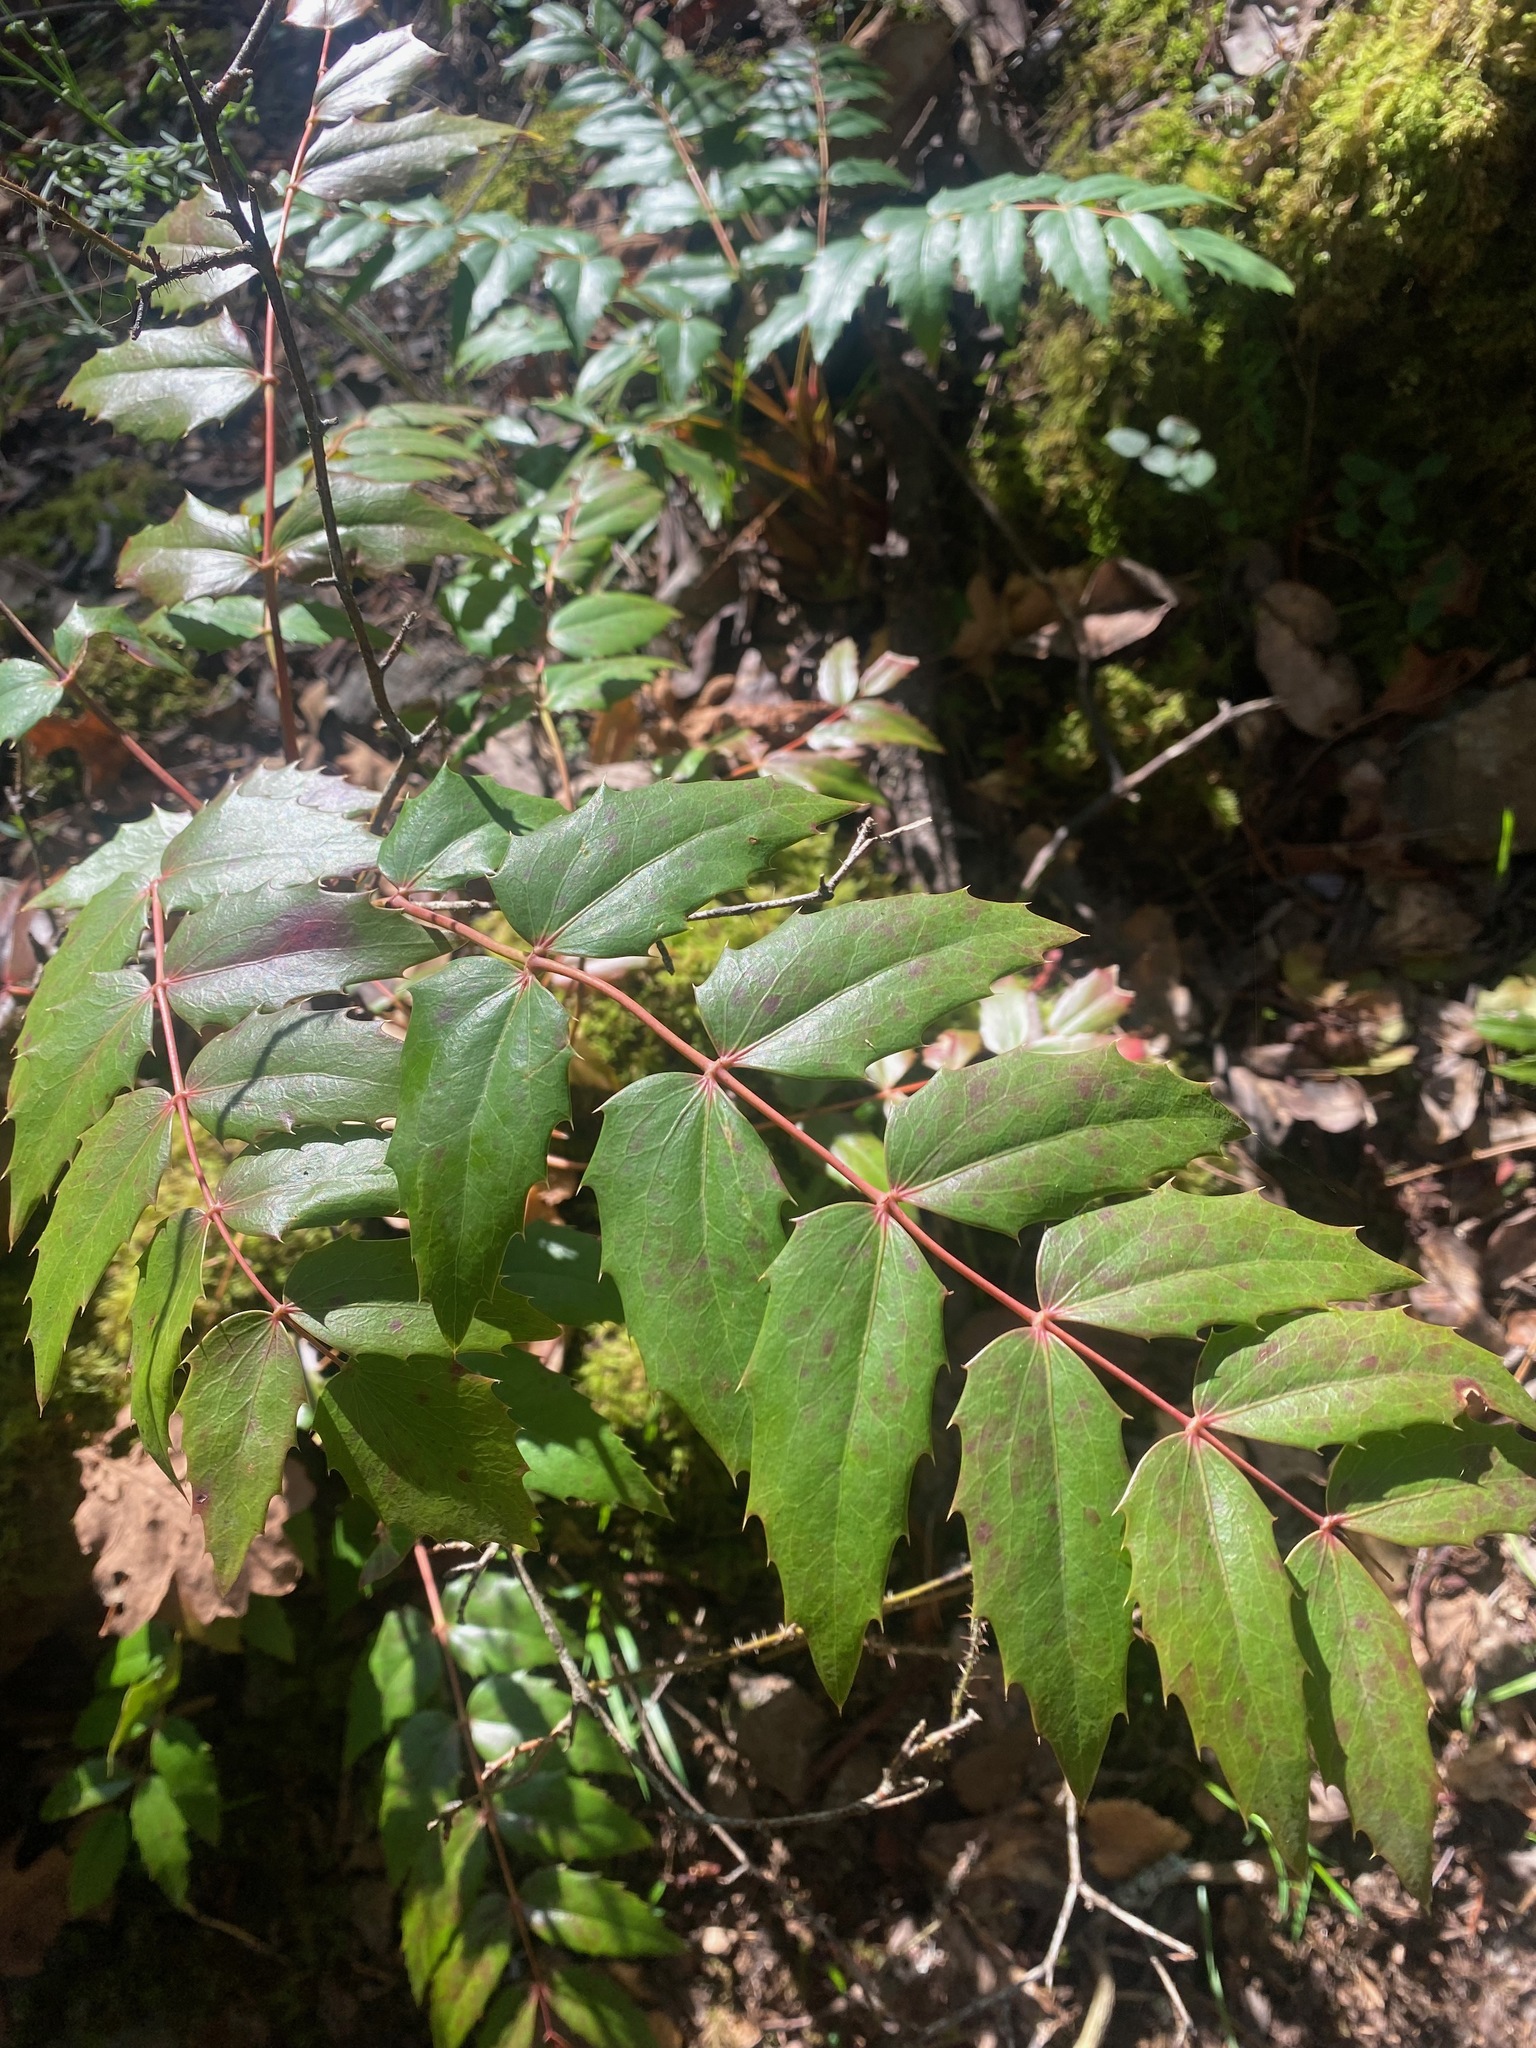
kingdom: Plantae
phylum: Tracheophyta
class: Magnoliopsida
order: Ranunculales
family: Berberidaceae
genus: Mahonia
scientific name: Mahonia nervosa
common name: Cascade oregon-grape
